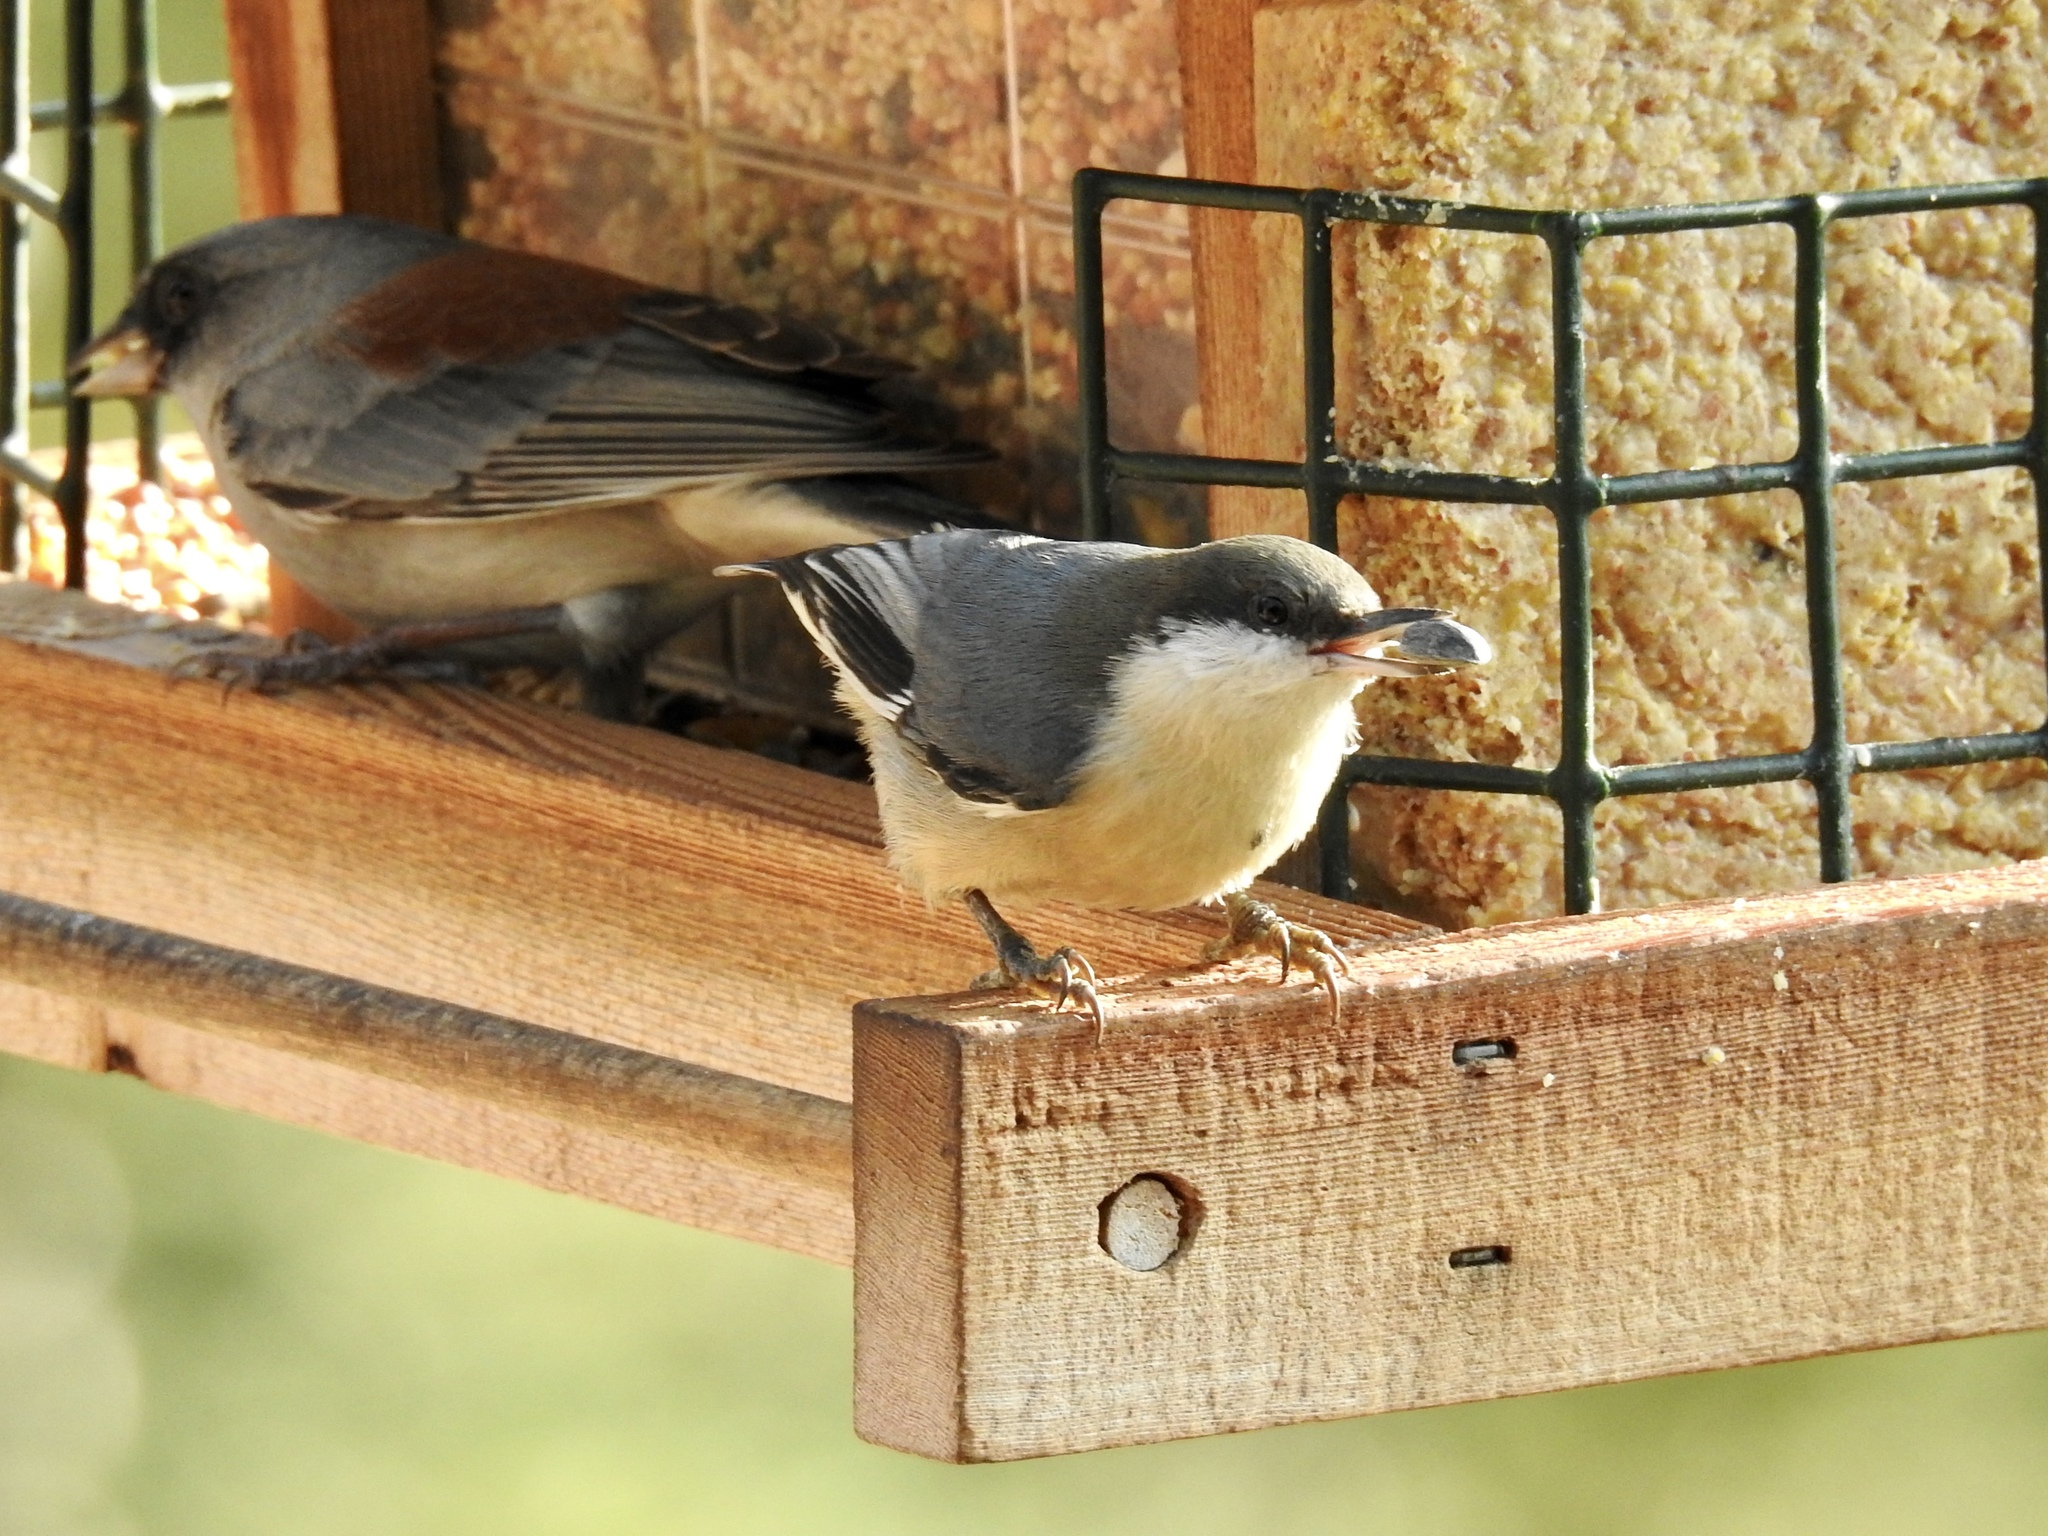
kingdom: Animalia
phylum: Chordata
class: Aves
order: Passeriformes
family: Sittidae
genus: Sitta
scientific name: Sitta pygmaea
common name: Pygmy nuthatch
